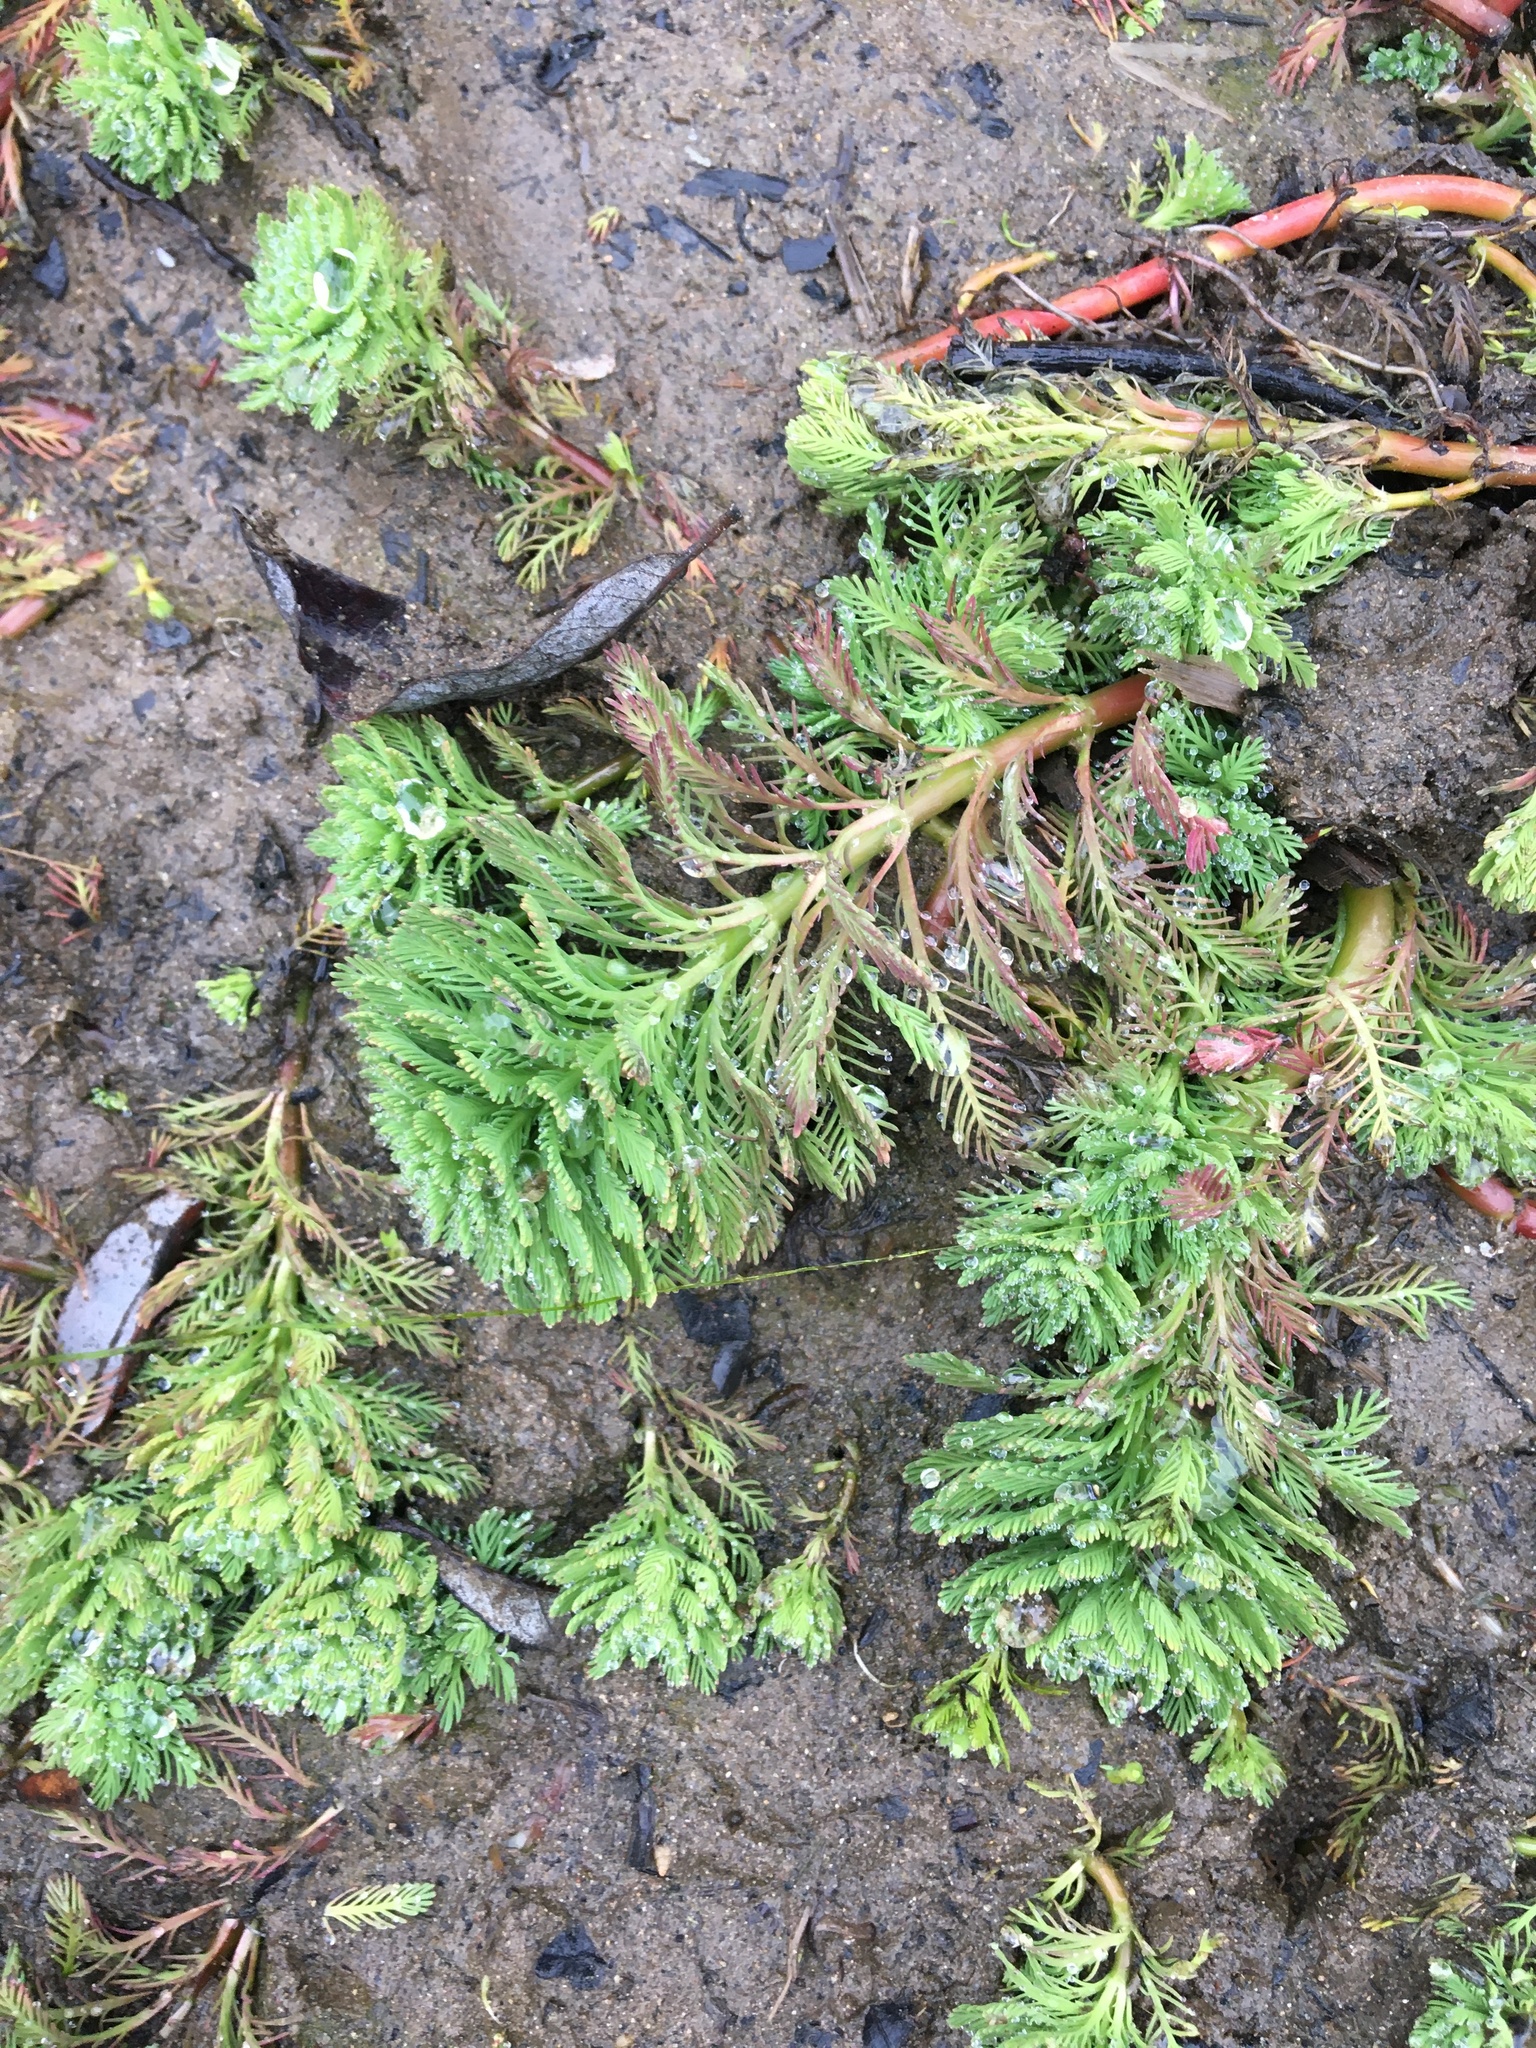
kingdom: Plantae
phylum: Tracheophyta
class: Magnoliopsida
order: Saxifragales
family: Haloragaceae
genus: Myriophyllum
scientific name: Myriophyllum aquaticum
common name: Parrot's feather
